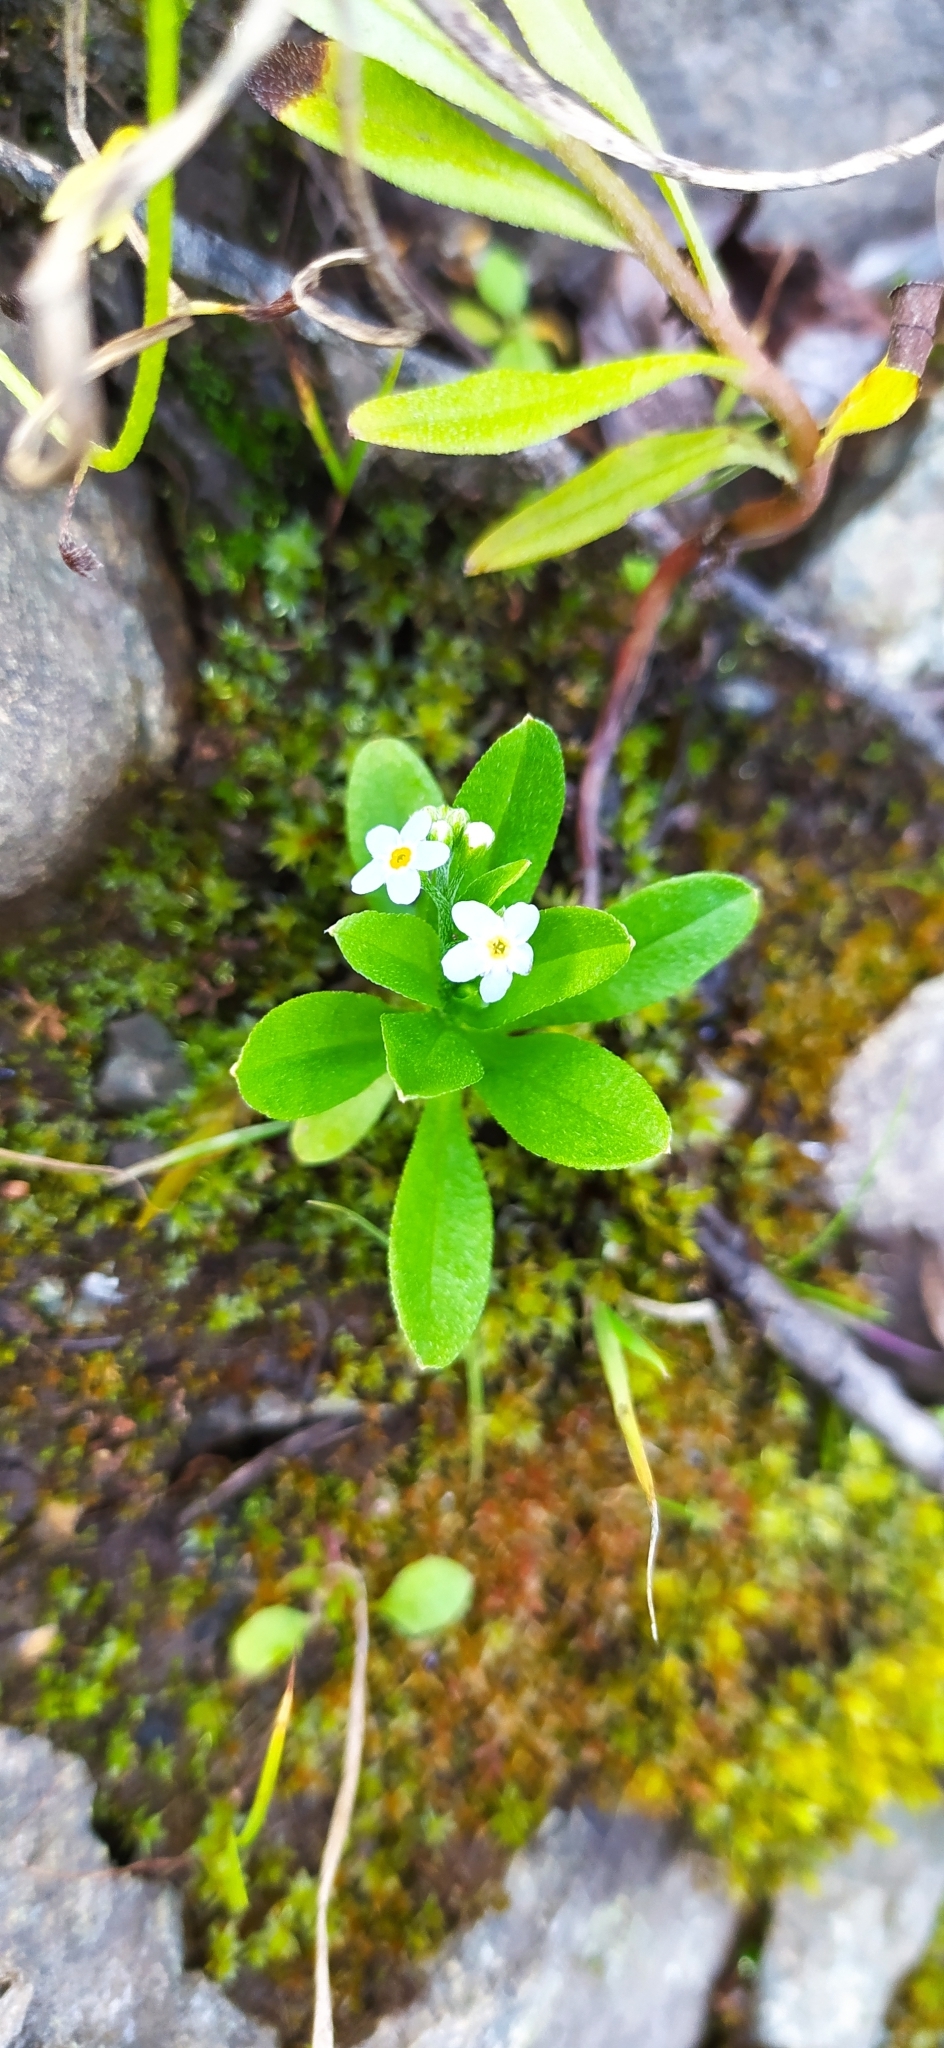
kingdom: Plantae
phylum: Tracheophyta
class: Magnoliopsida
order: Boraginales
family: Boraginaceae
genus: Myosotis
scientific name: Myosotis laxa
